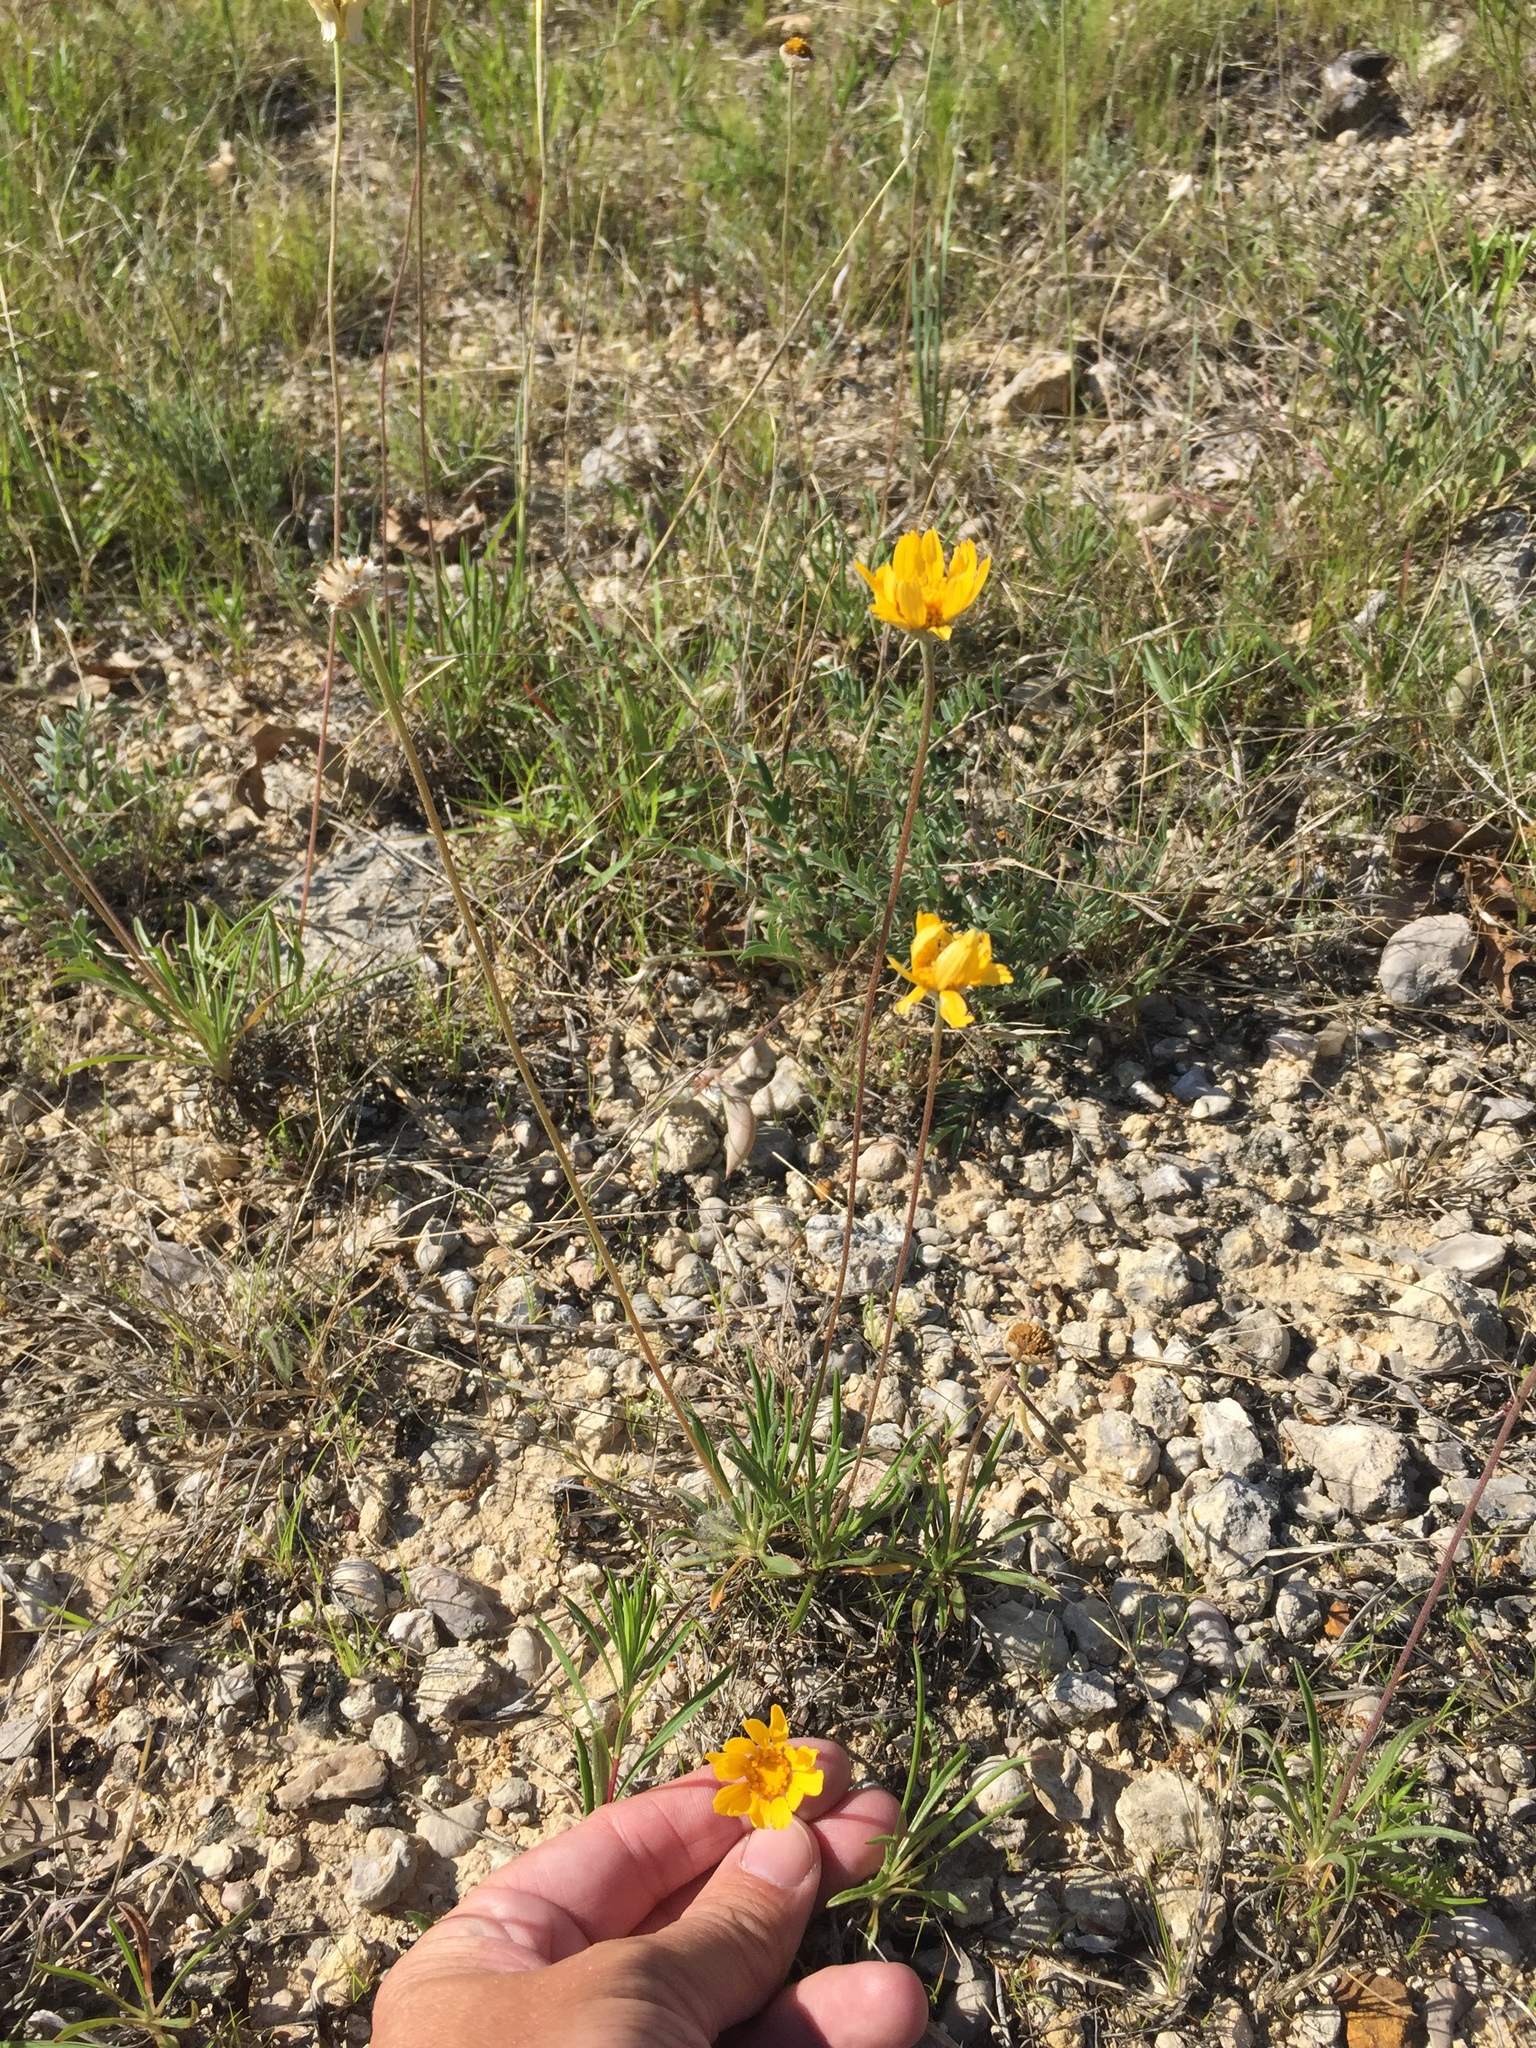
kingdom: Plantae
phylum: Tracheophyta
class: Magnoliopsida
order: Asterales
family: Asteraceae
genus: Tetraneuris
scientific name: Tetraneuris scaposa
